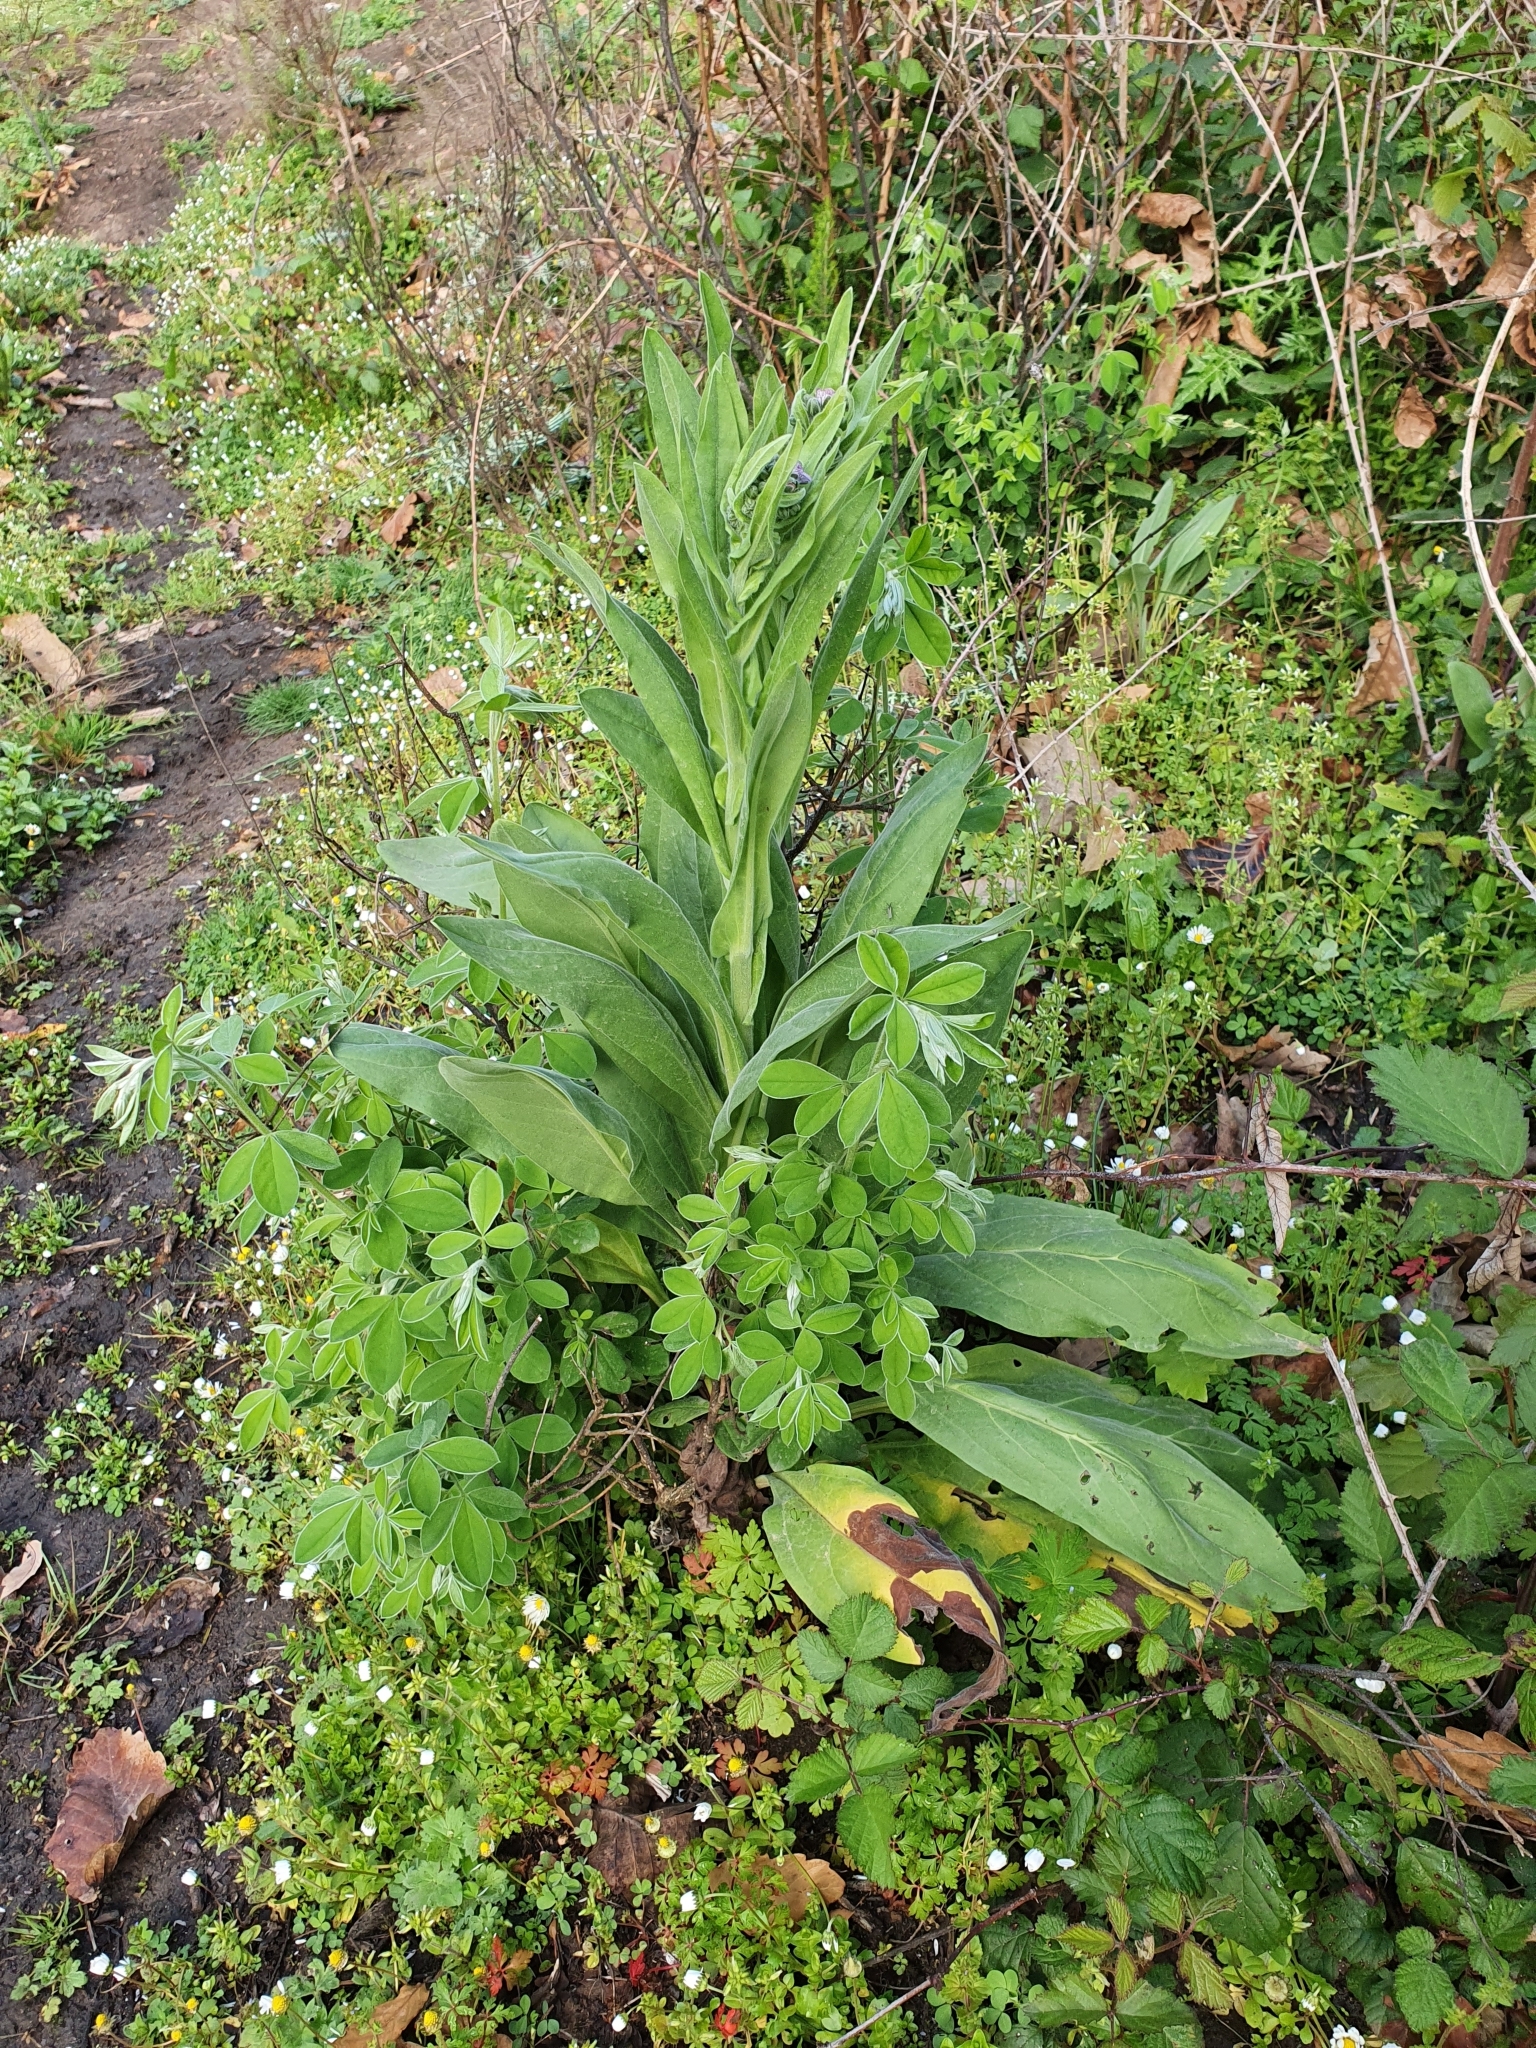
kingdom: Plantae
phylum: Tracheophyta
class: Magnoliopsida
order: Boraginales
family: Boraginaceae
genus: Cynoglossum
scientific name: Cynoglossum creticum
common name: Blue hound's tongue
